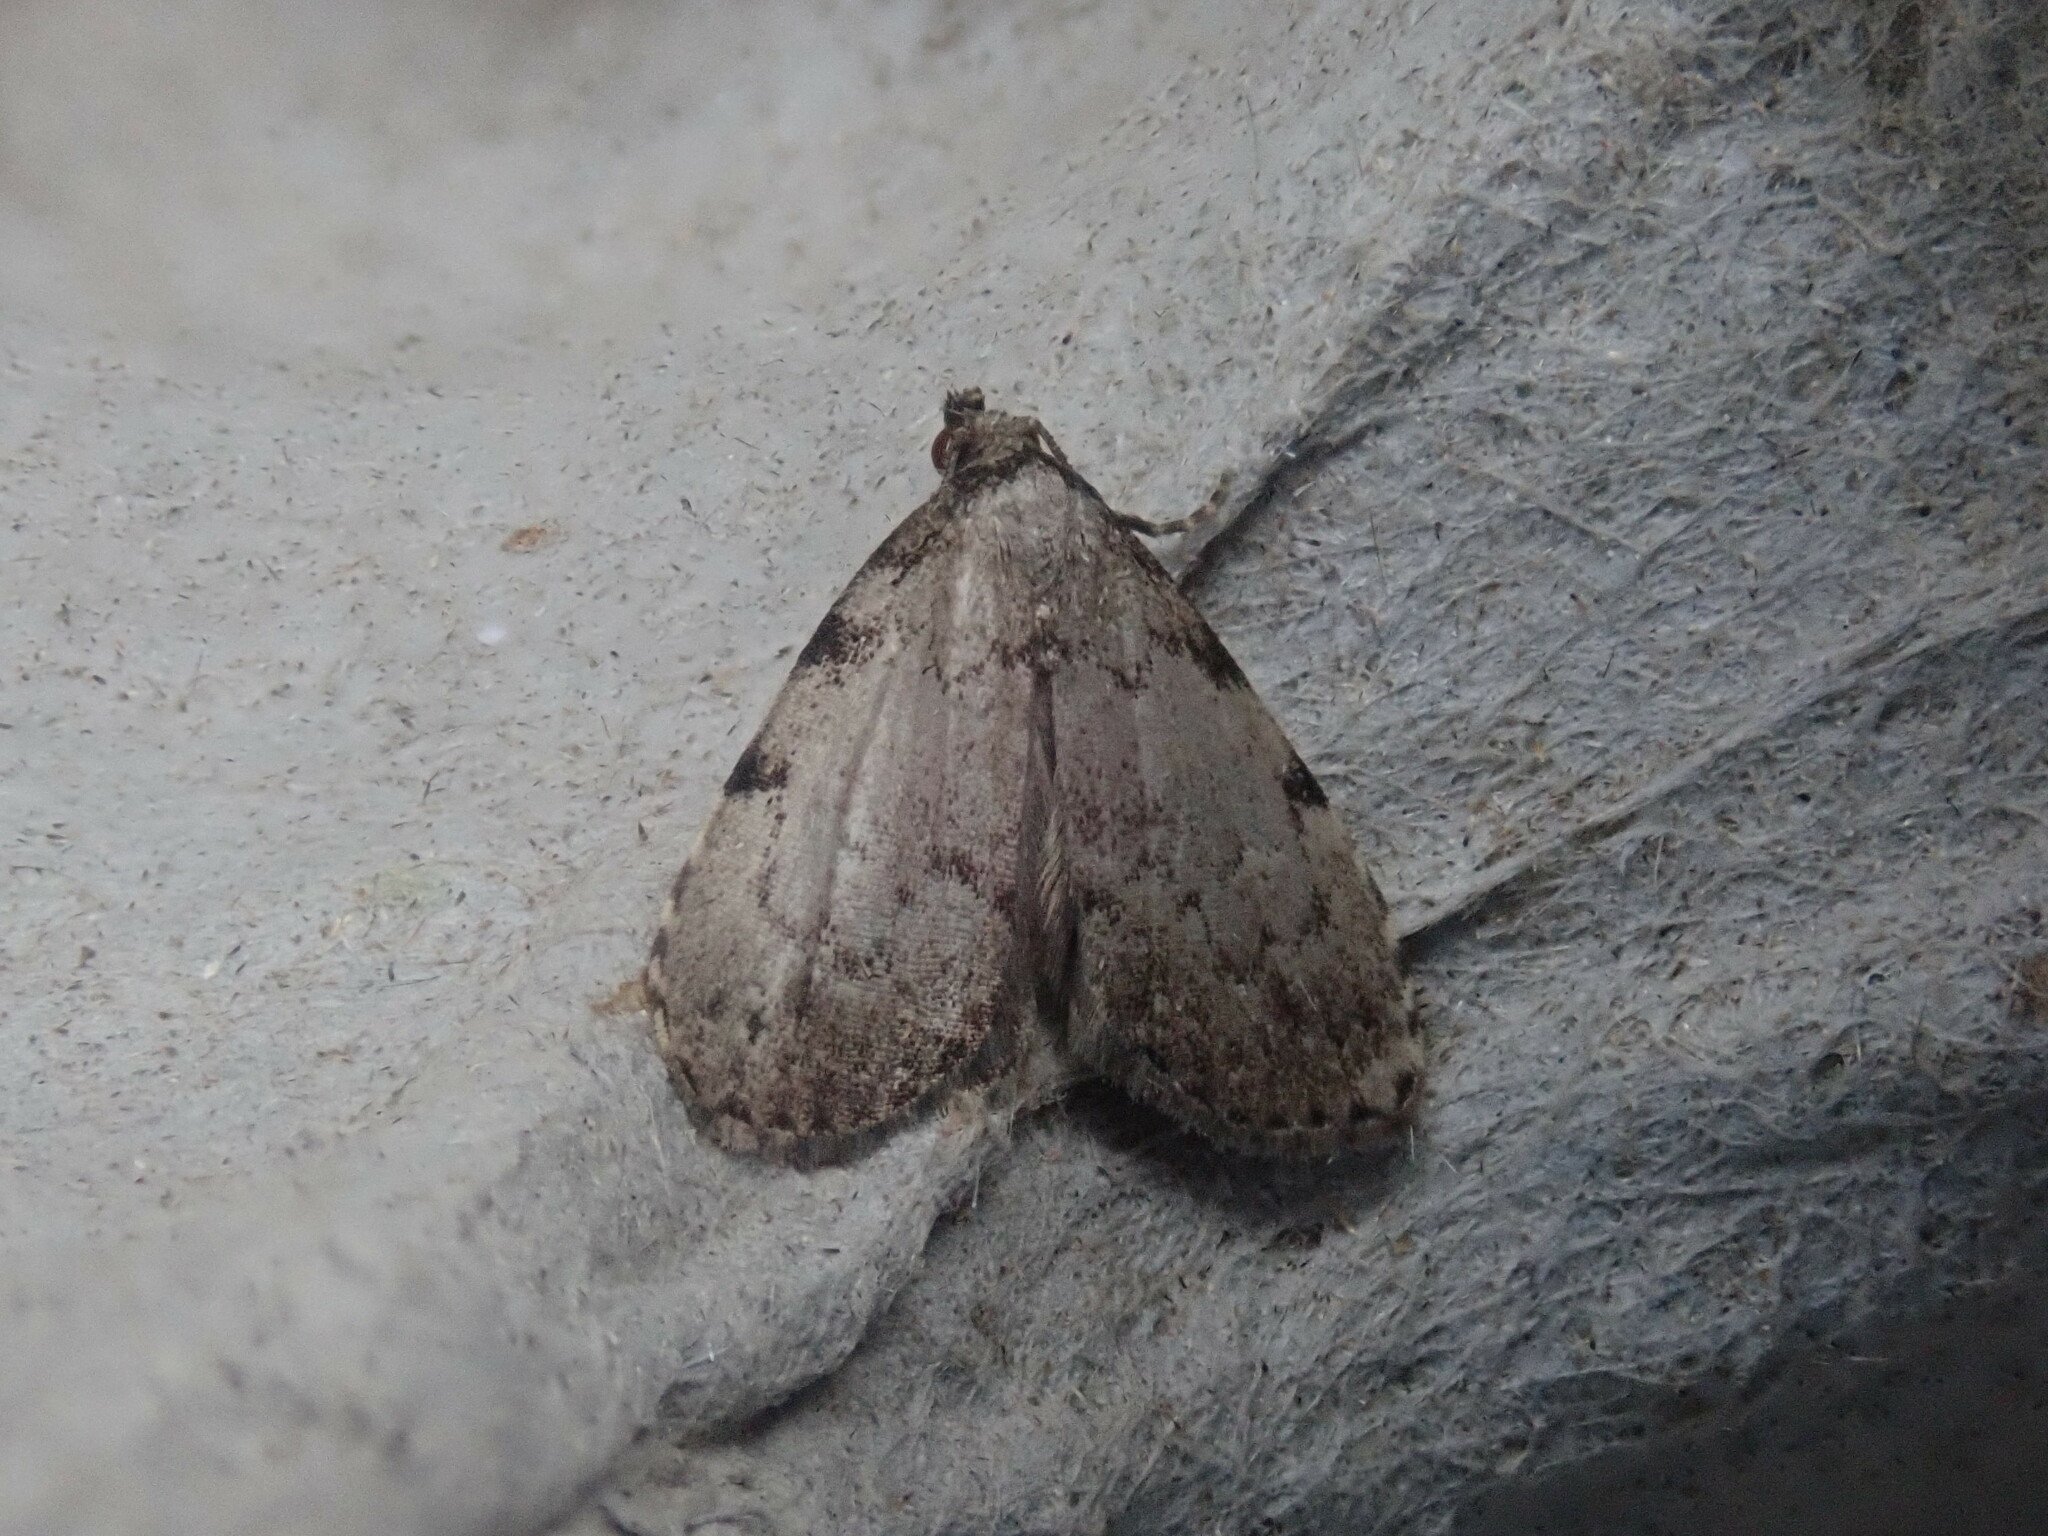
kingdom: Animalia
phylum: Arthropoda
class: Insecta
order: Lepidoptera
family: Erebidae
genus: Dyspyralis
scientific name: Dyspyralis puncticosta
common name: Spot-edged dyspyralis moth
